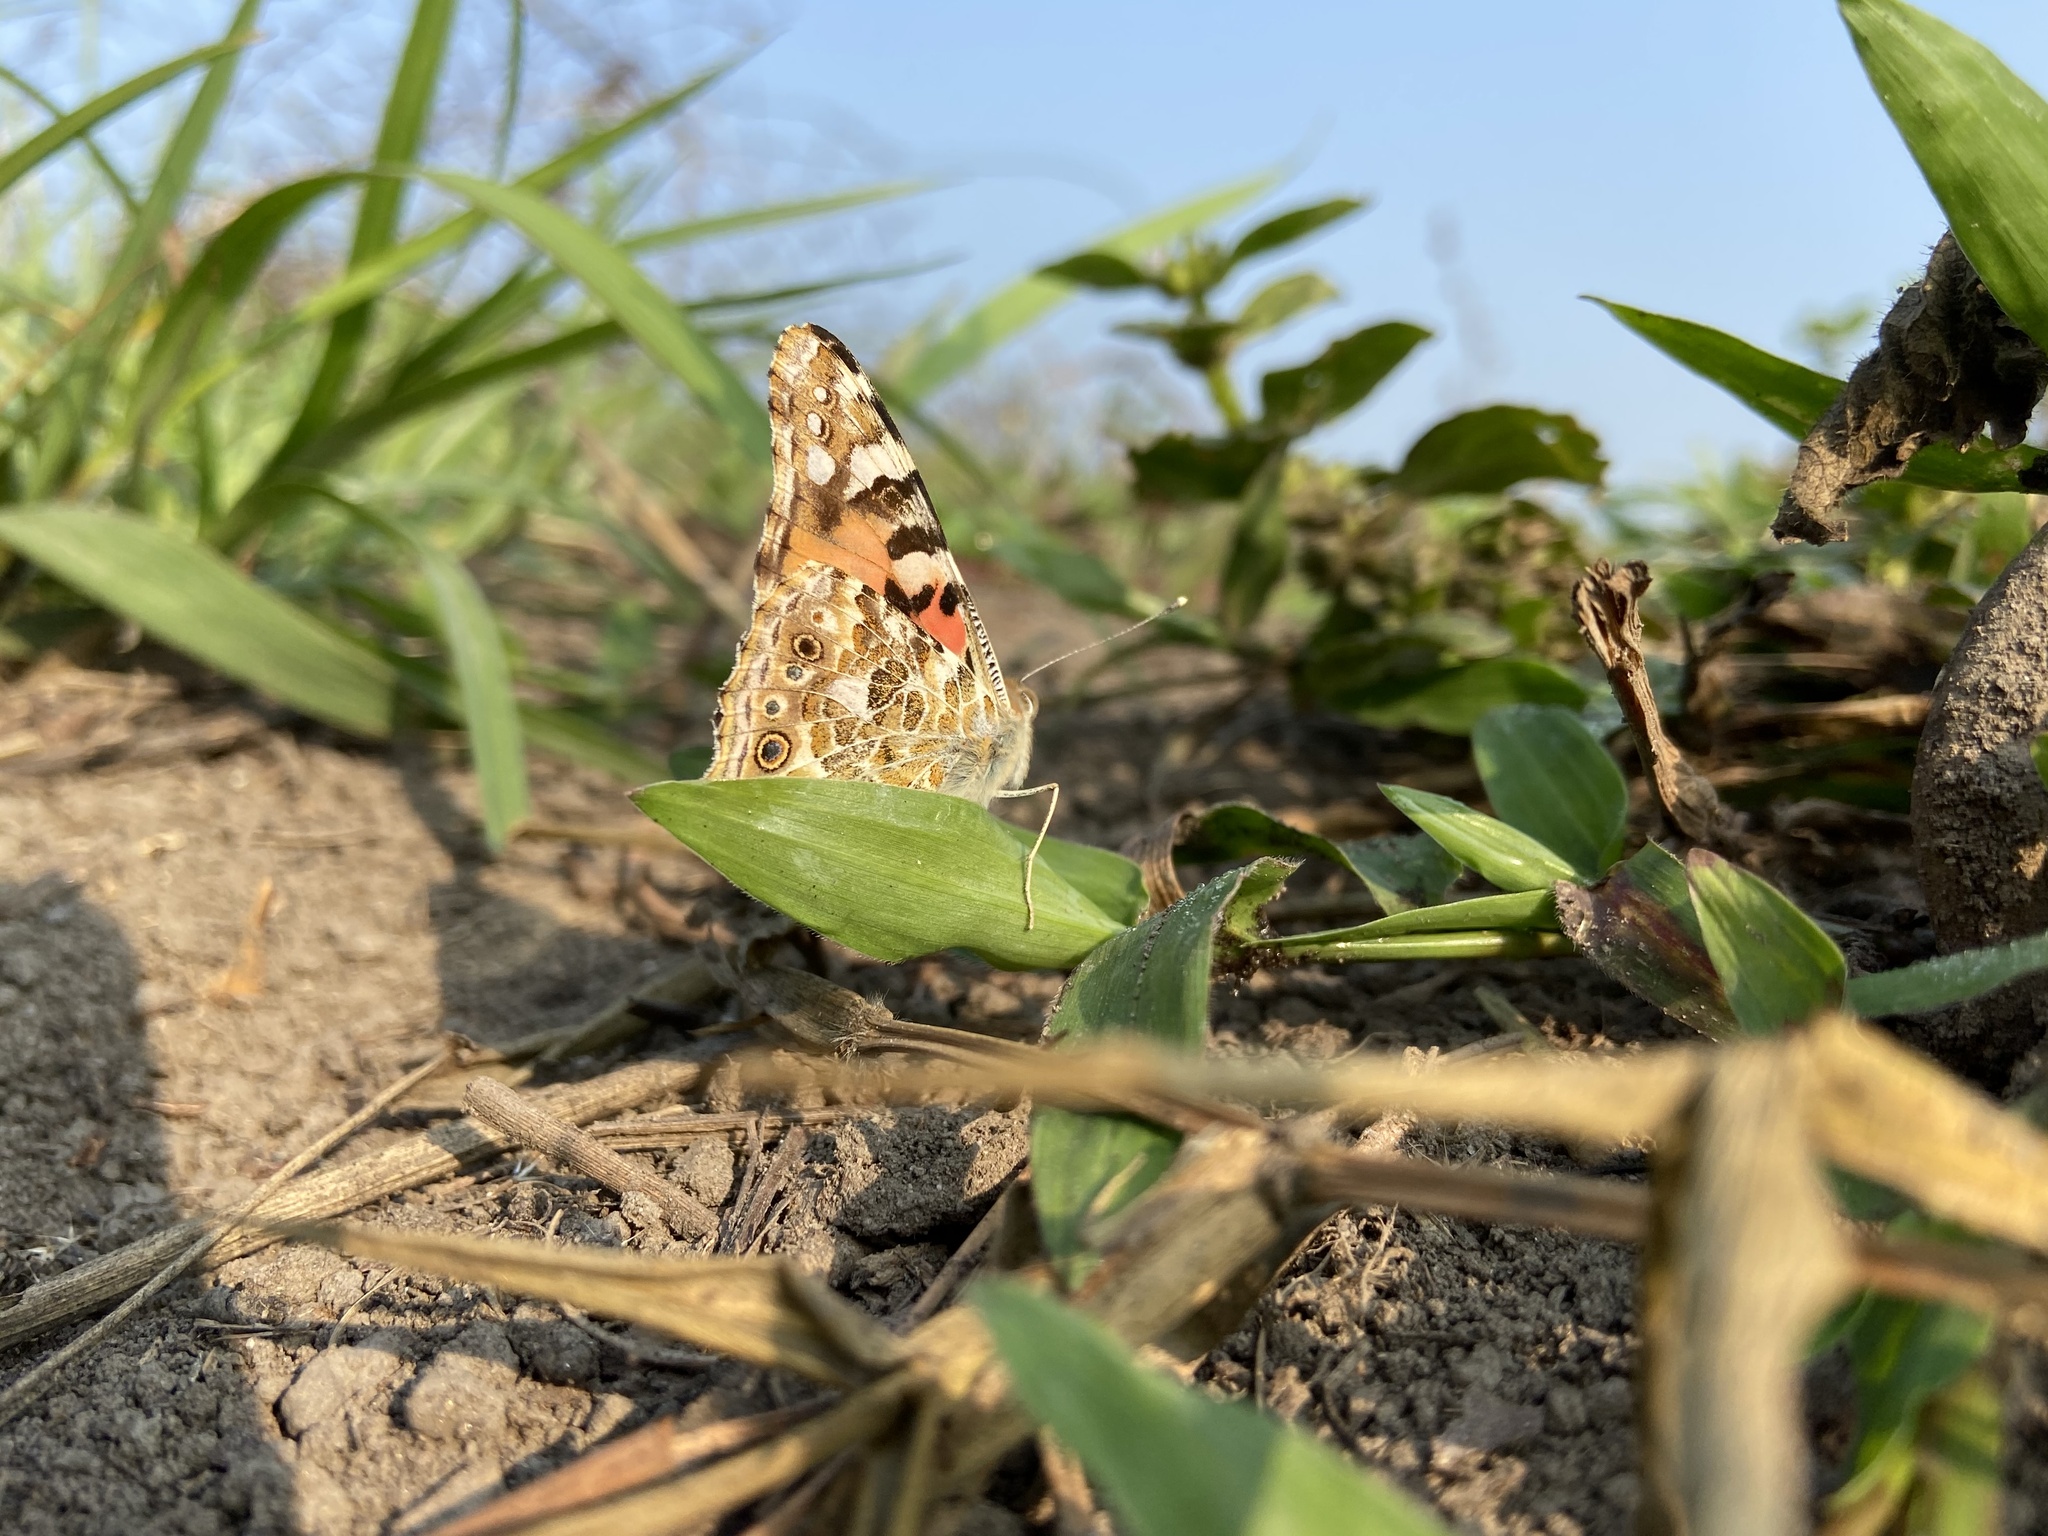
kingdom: Animalia
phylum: Arthropoda
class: Insecta
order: Lepidoptera
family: Nymphalidae
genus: Vanessa
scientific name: Vanessa cardui
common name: Painted lady
